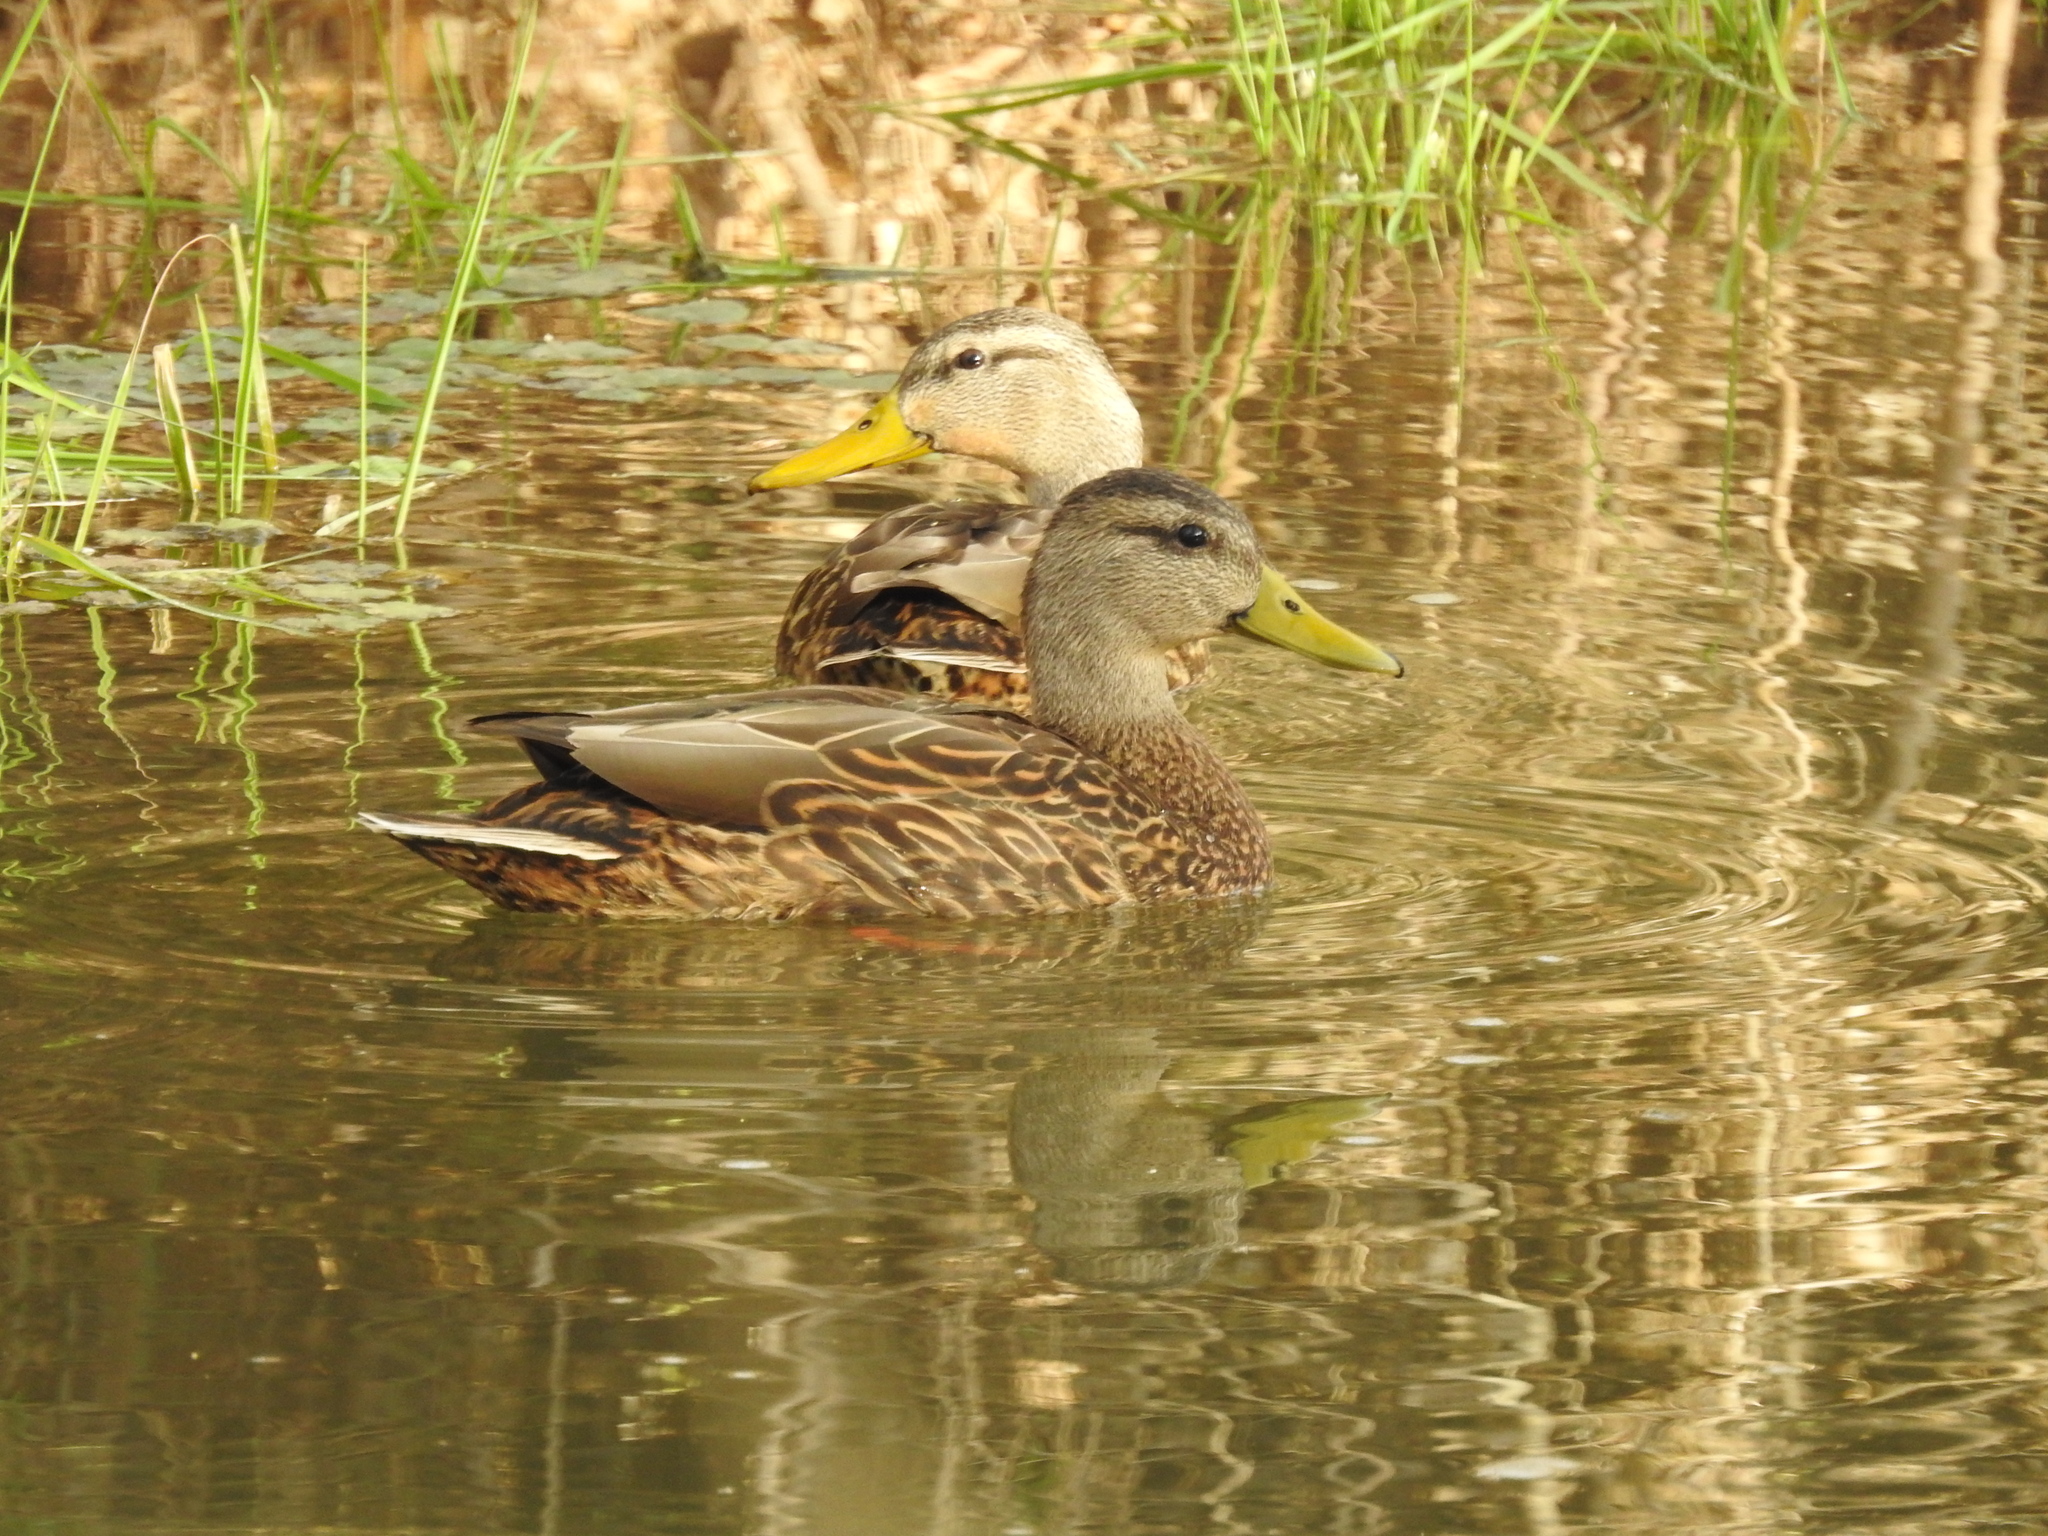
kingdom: Animalia
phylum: Chordata
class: Aves
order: Anseriformes
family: Anatidae
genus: Anas
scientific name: Anas diazi
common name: Mexican duck
